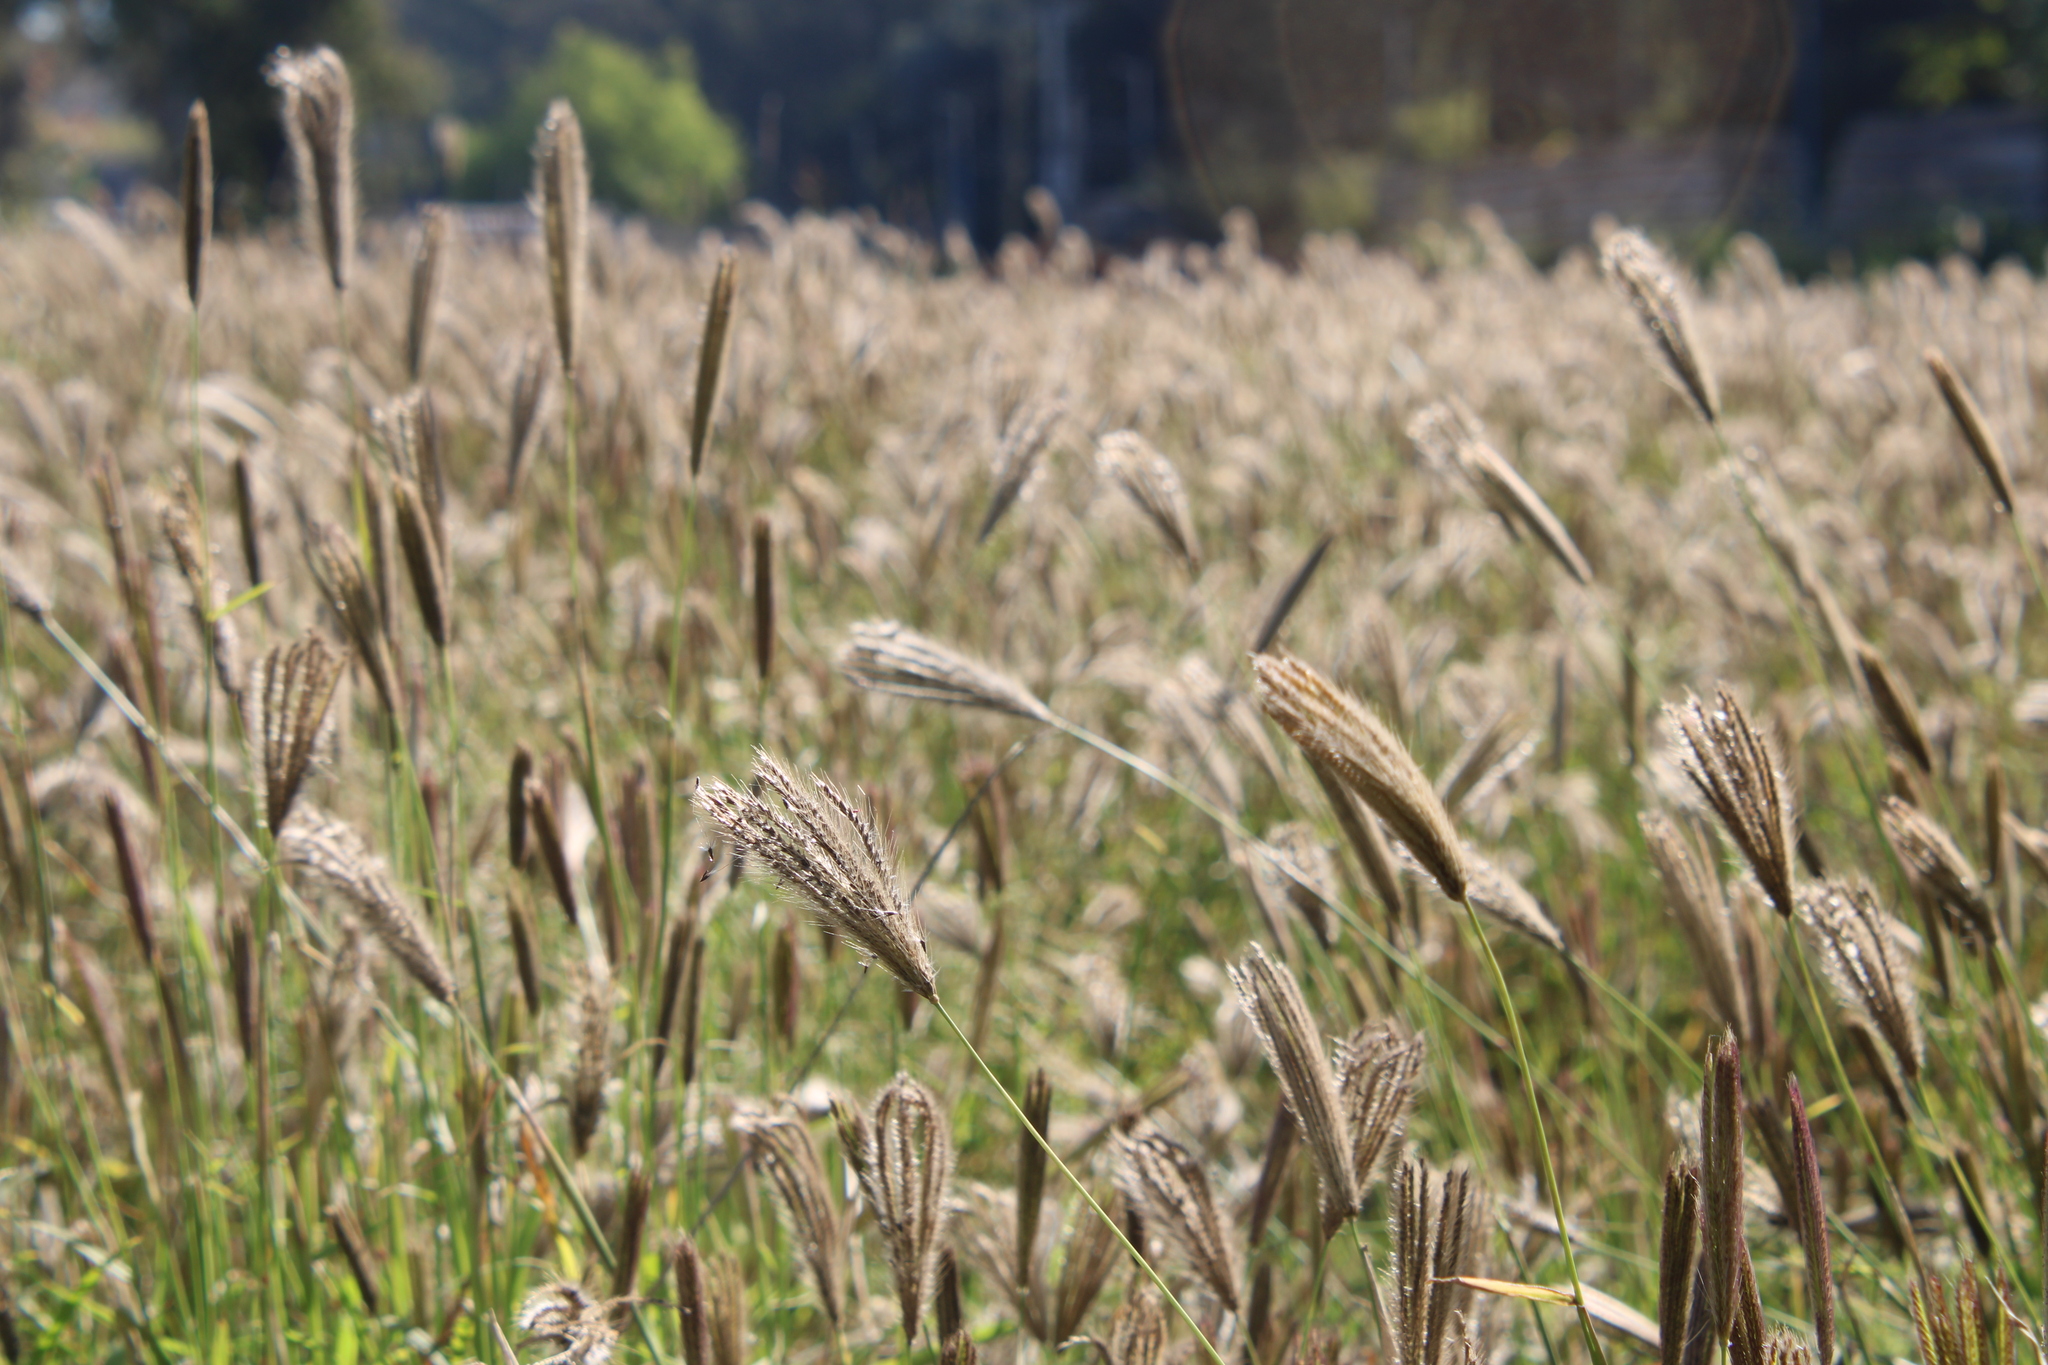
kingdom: Plantae
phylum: Tracheophyta
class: Liliopsida
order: Poales
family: Poaceae
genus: Chloris
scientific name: Chloris virgata
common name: Feathery rhodes-grass
